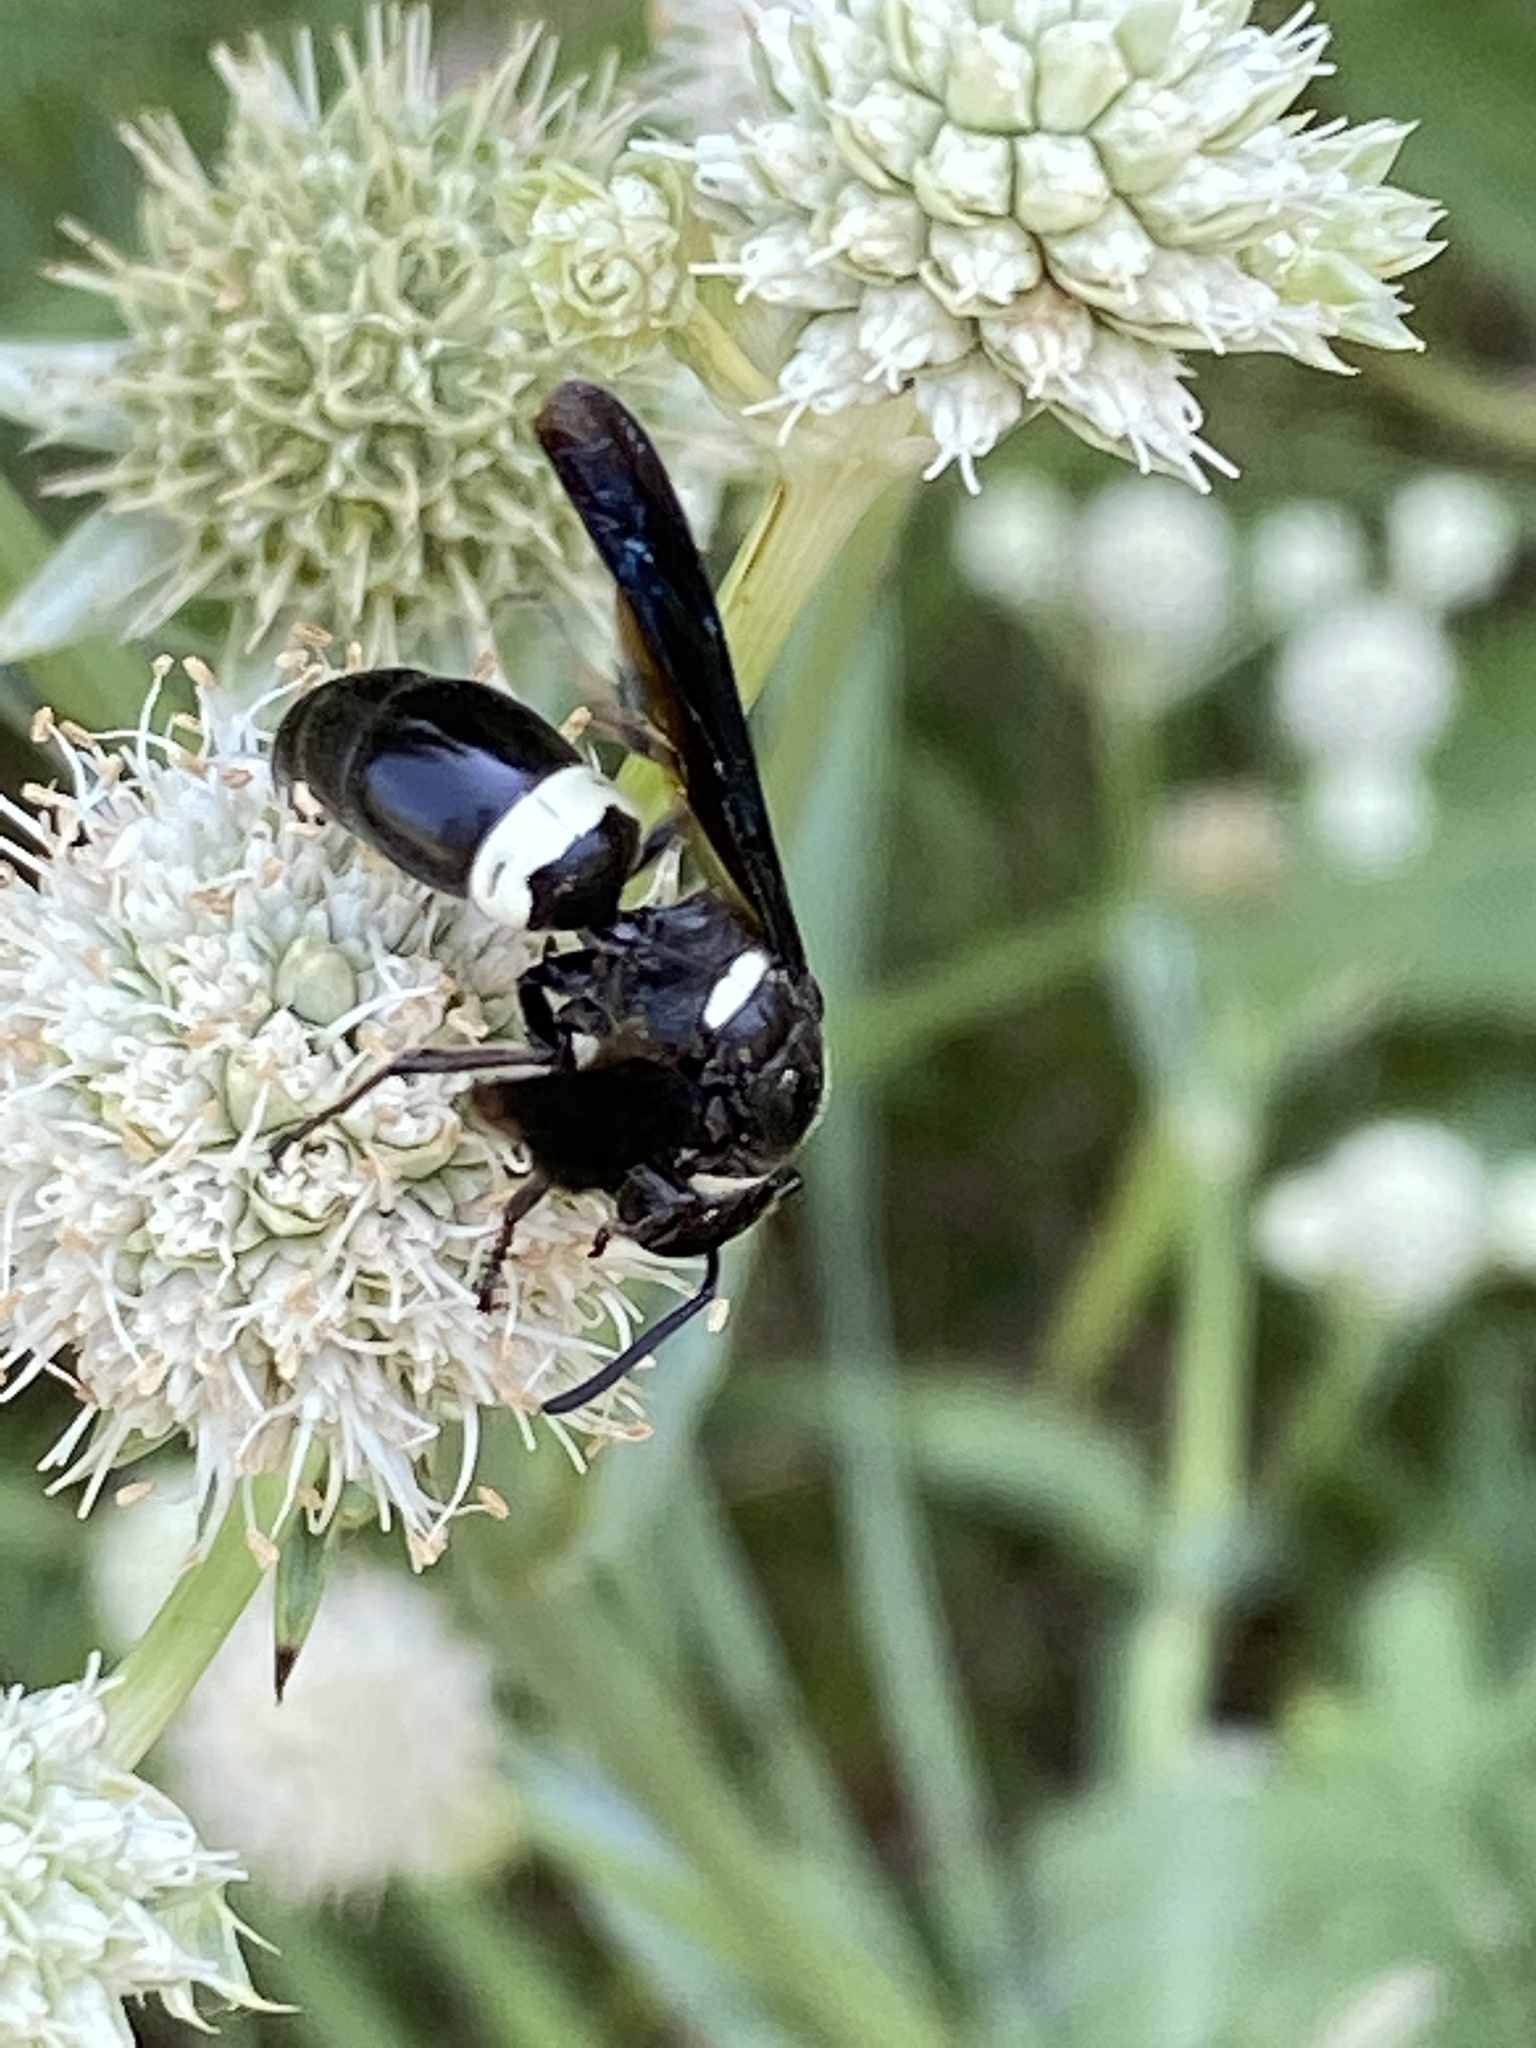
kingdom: Animalia
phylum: Arthropoda
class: Insecta
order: Hymenoptera
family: Eumenidae
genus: Monobia
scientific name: Monobia quadridens
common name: Four-toothed mason wasp
